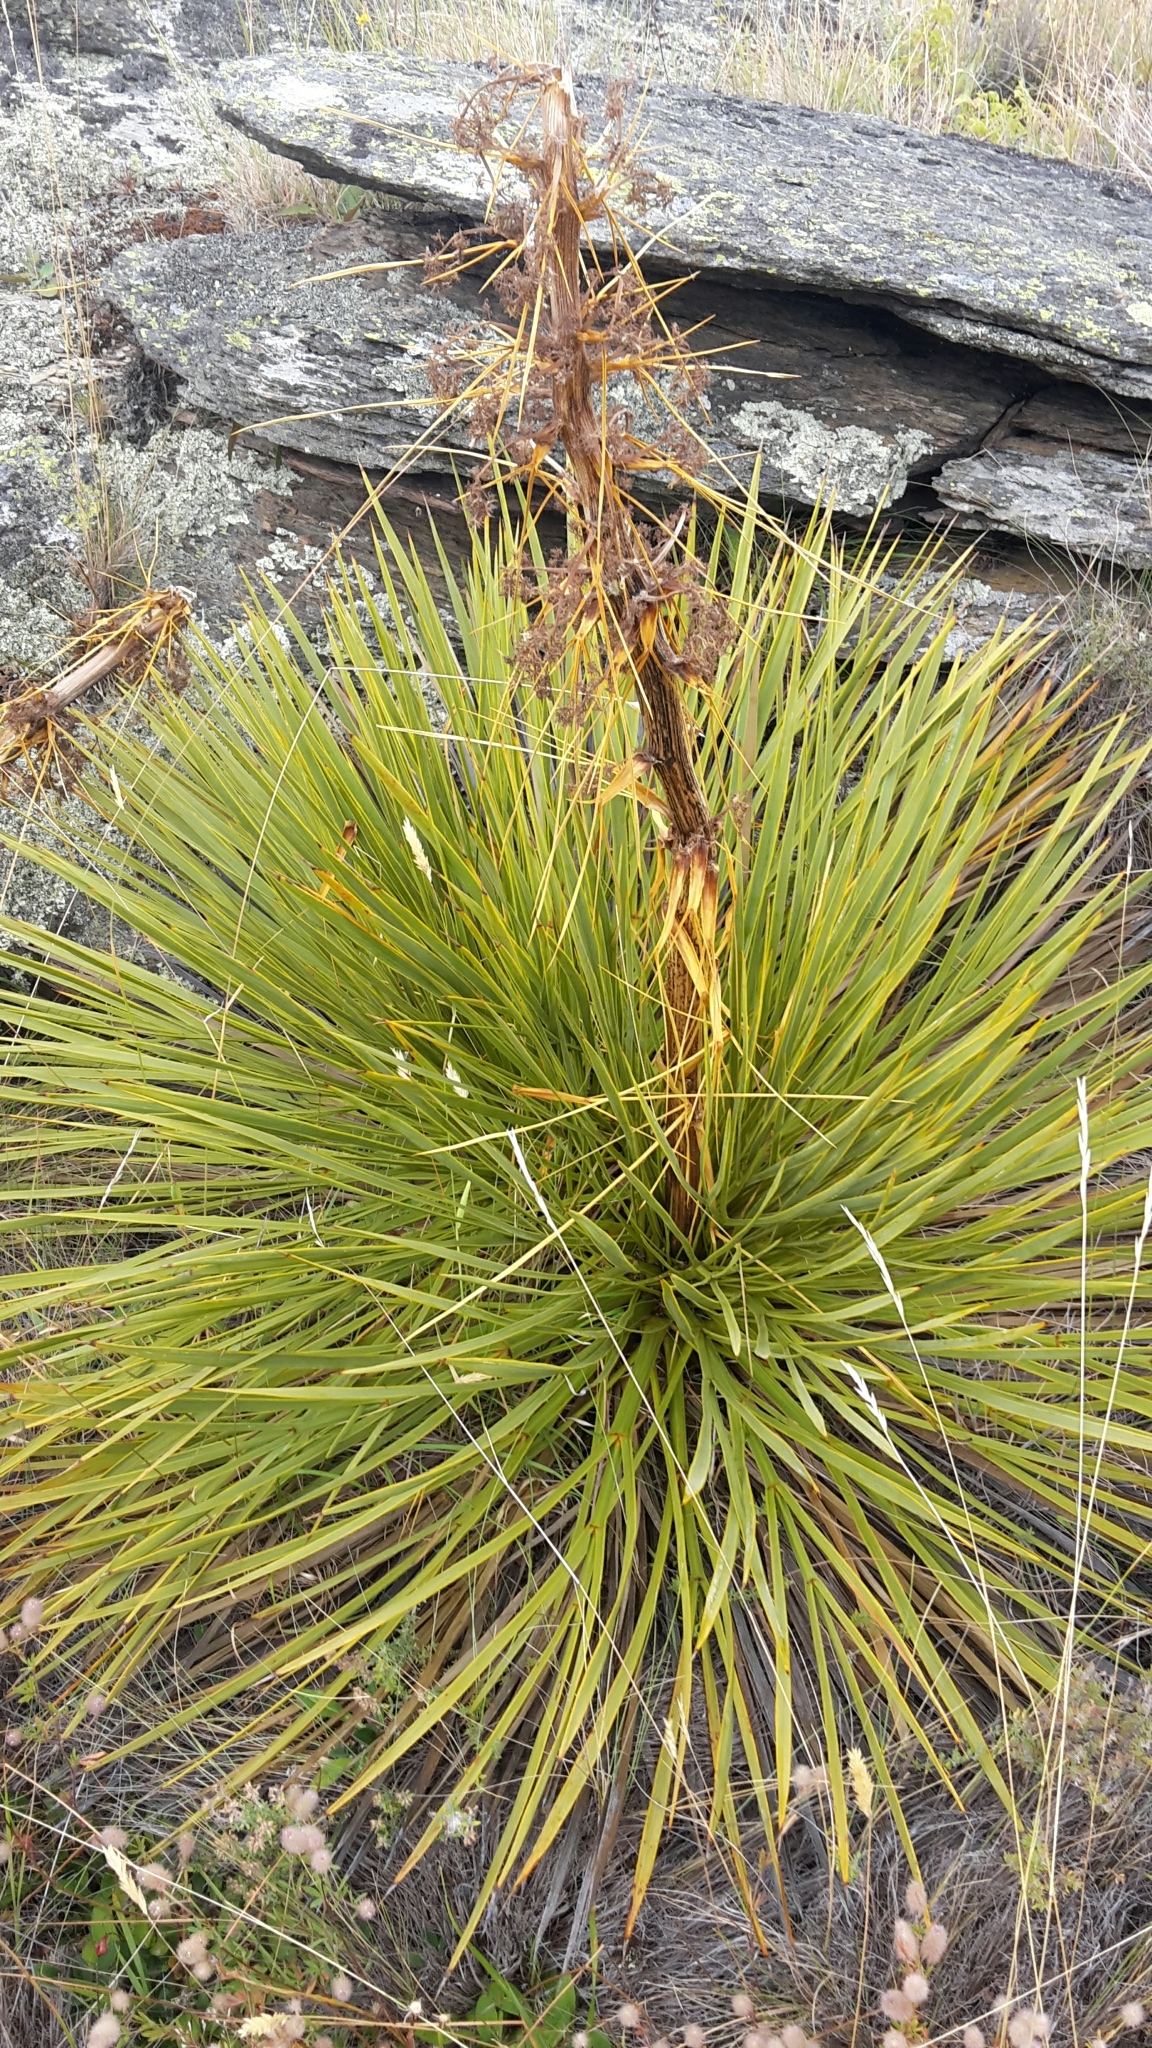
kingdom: Plantae
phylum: Tracheophyta
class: Magnoliopsida
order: Apiales
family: Apiaceae
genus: Aciphylla
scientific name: Aciphylla aurea
